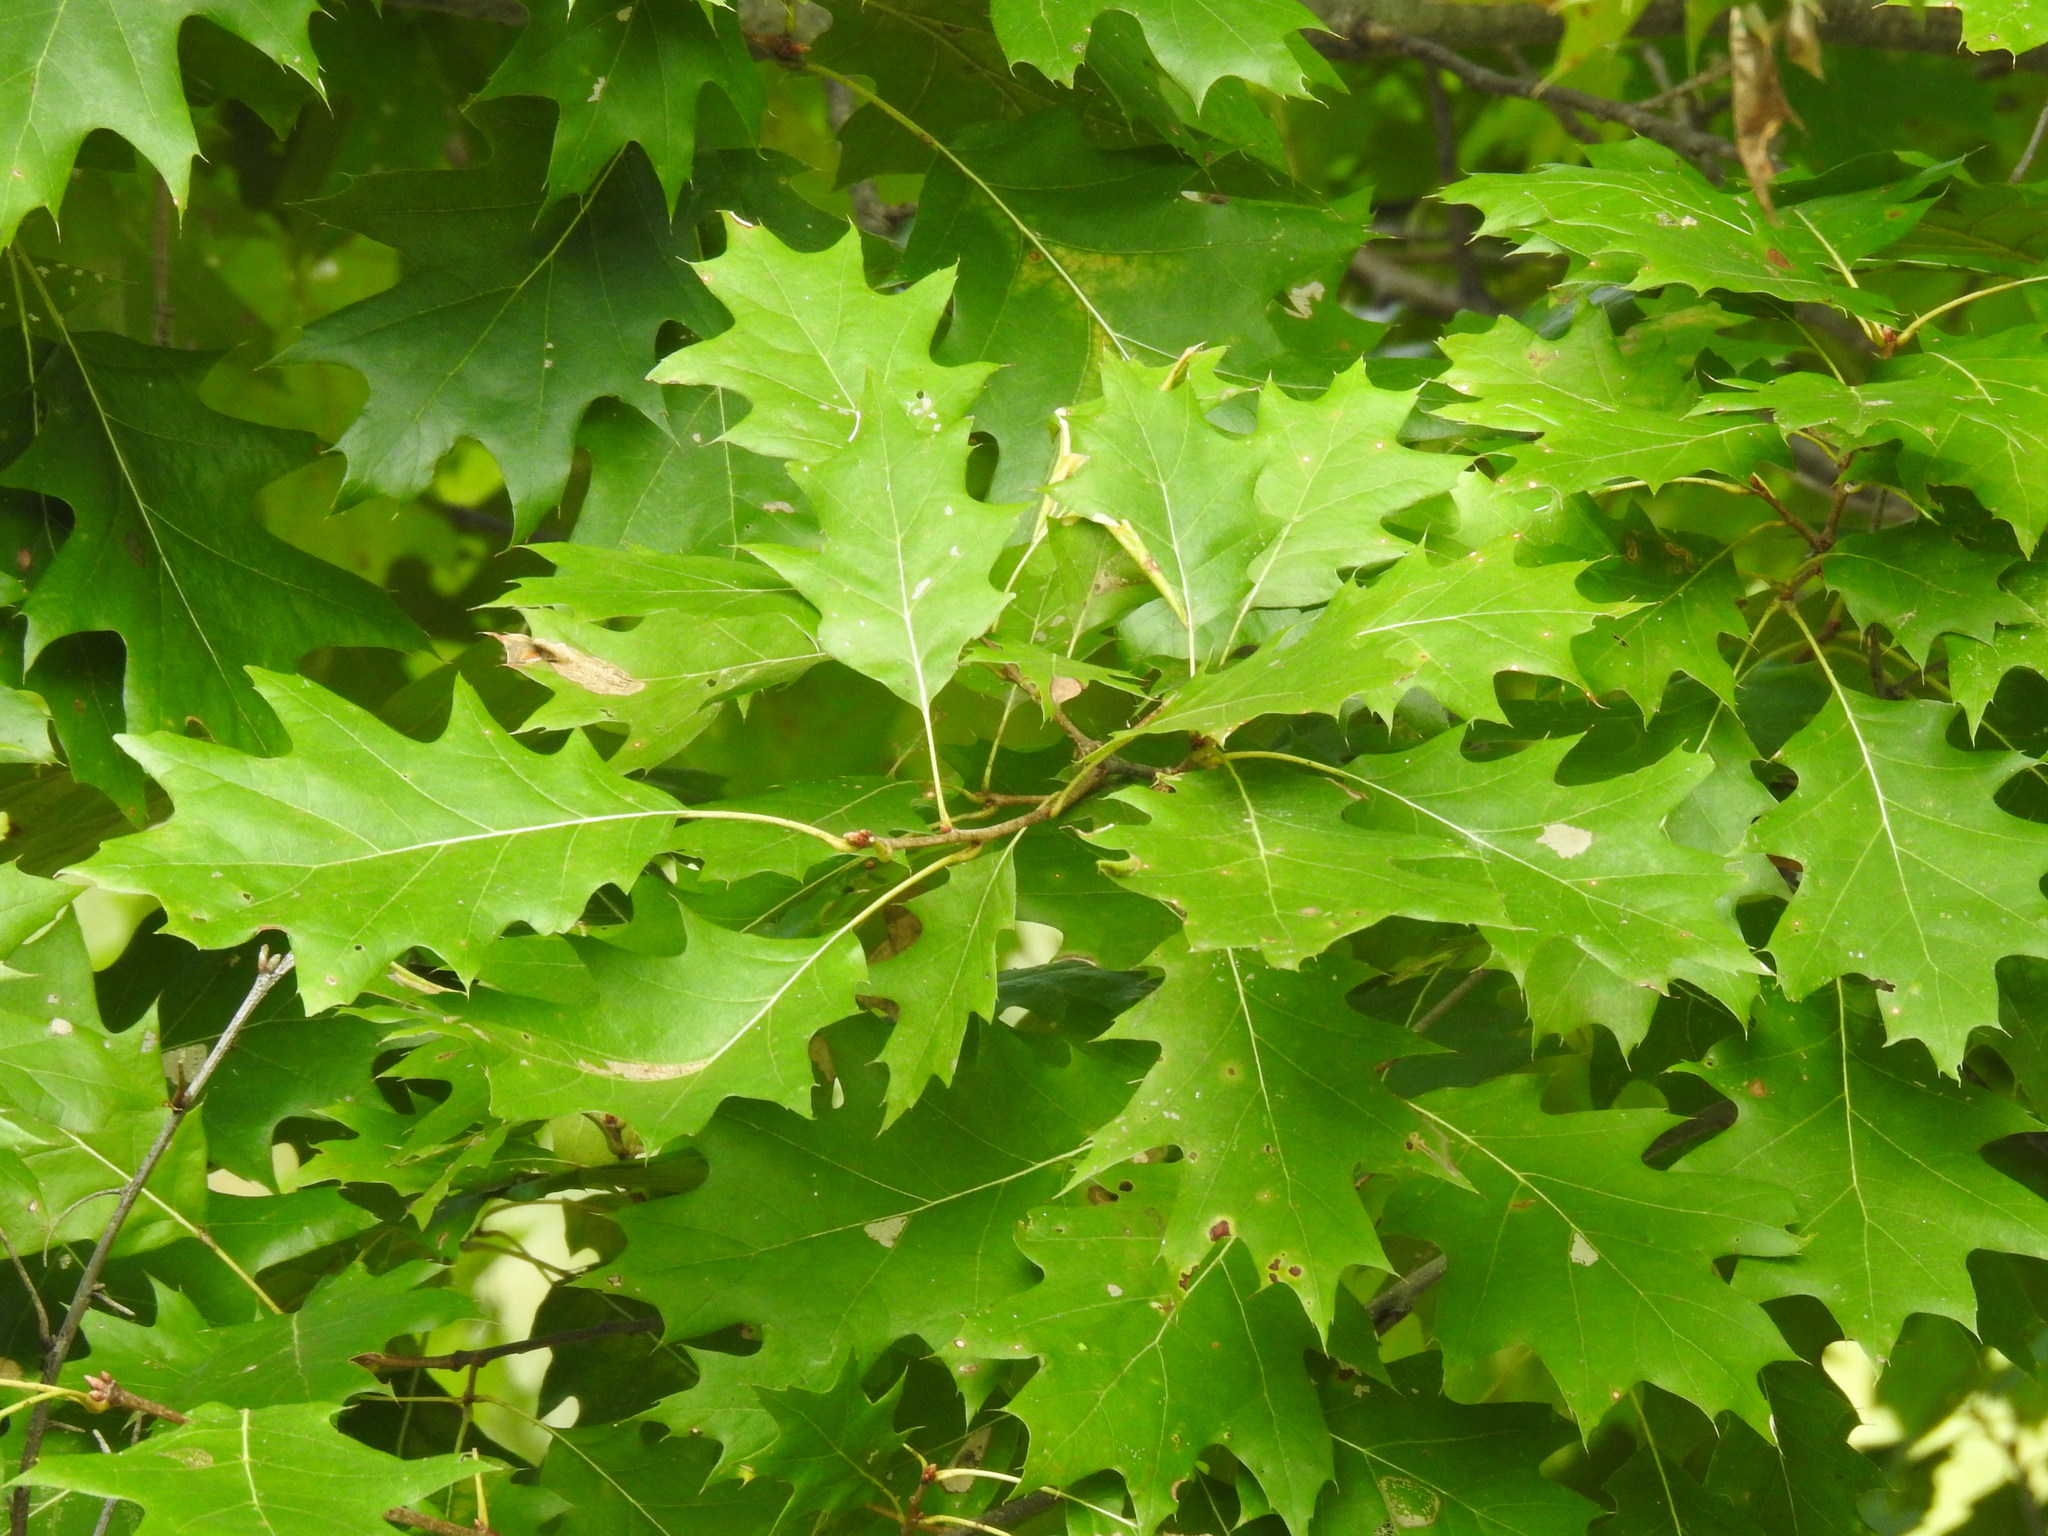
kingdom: Plantae
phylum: Tracheophyta
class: Magnoliopsida
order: Fagales
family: Fagaceae
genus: Quercus
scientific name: Quercus rubra
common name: Red oak
